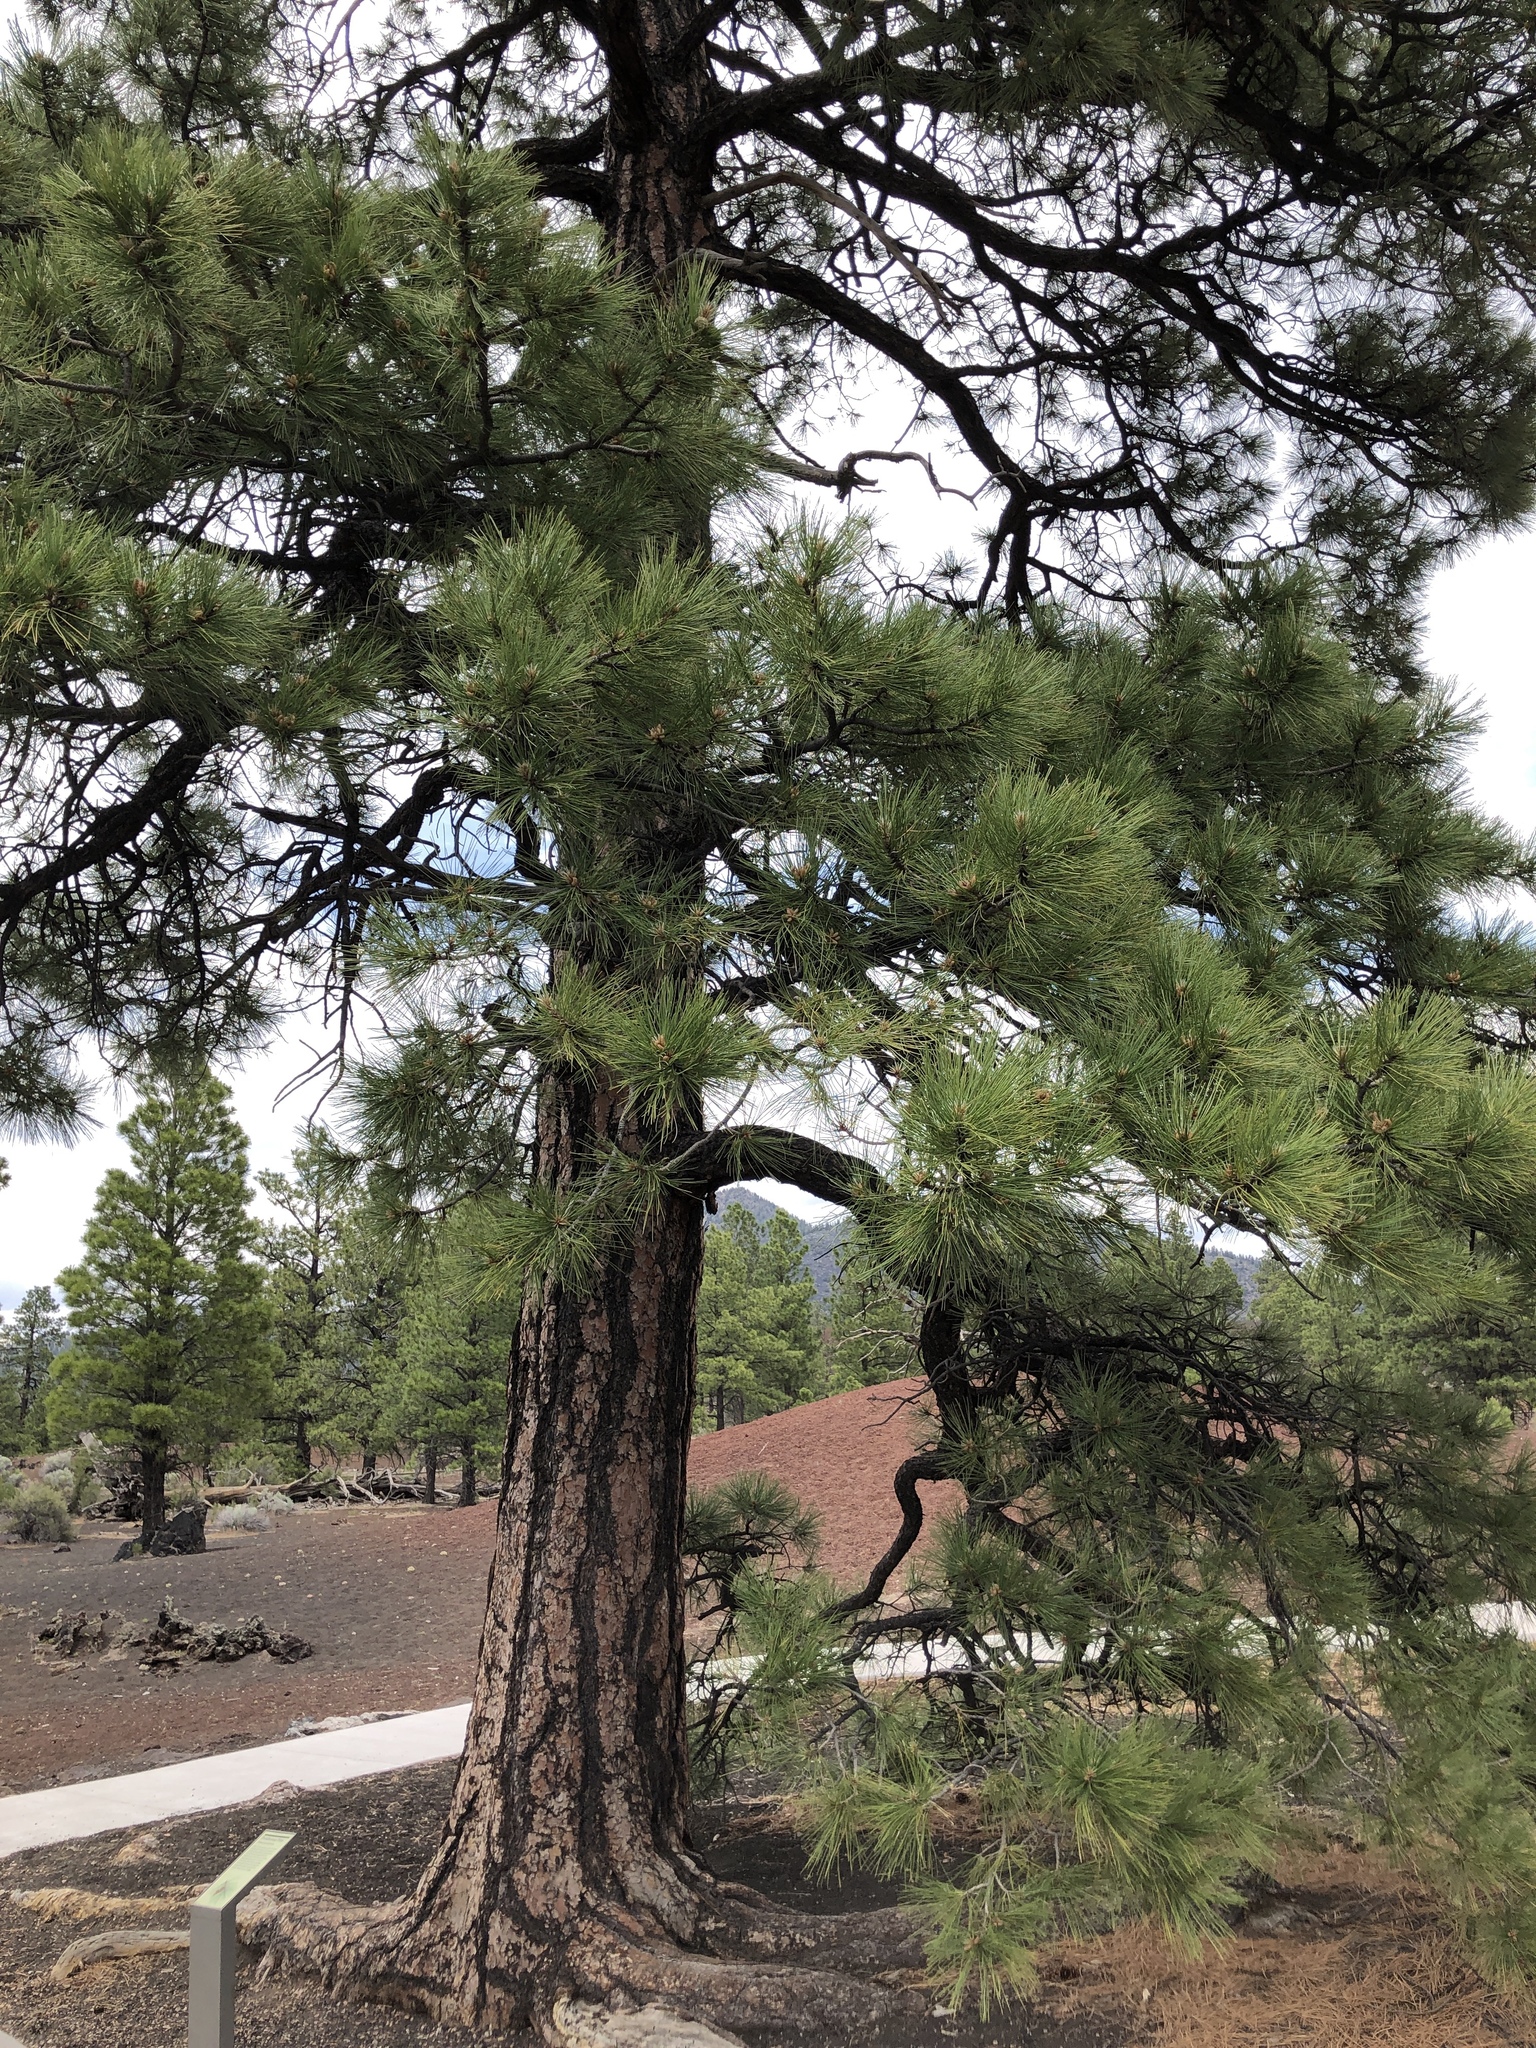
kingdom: Plantae
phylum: Tracheophyta
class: Pinopsida
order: Pinales
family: Pinaceae
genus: Pinus
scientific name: Pinus ponderosa
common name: Western yellow-pine
